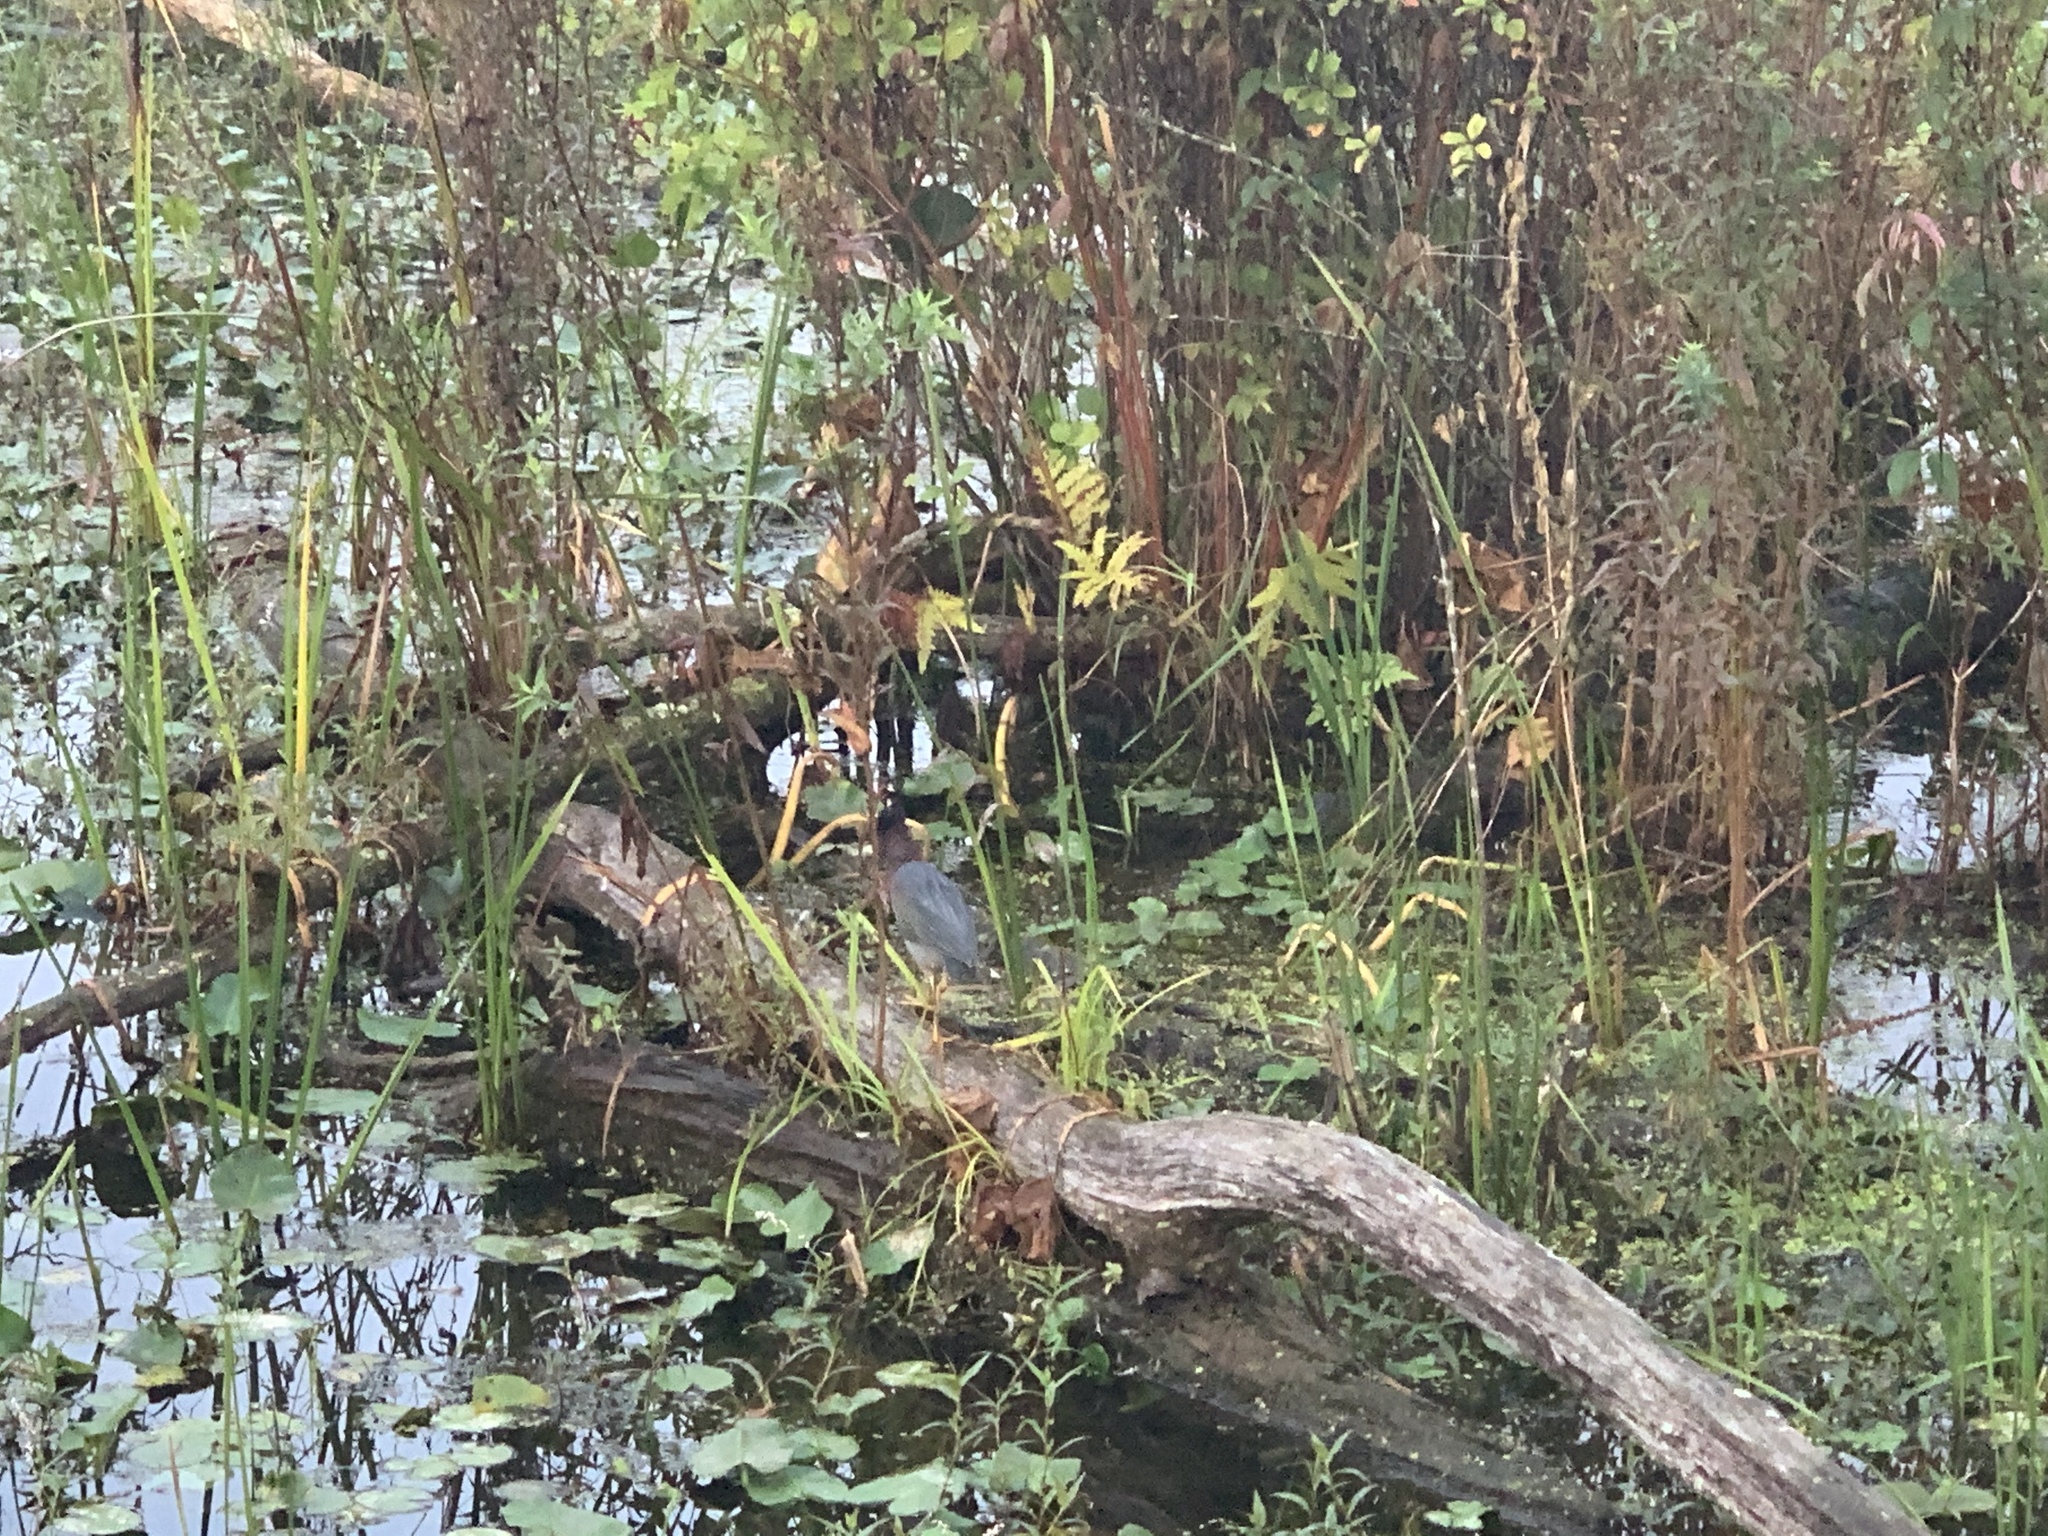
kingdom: Animalia
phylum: Chordata
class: Aves
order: Pelecaniformes
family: Ardeidae
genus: Butorides
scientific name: Butorides virescens
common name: Green heron
